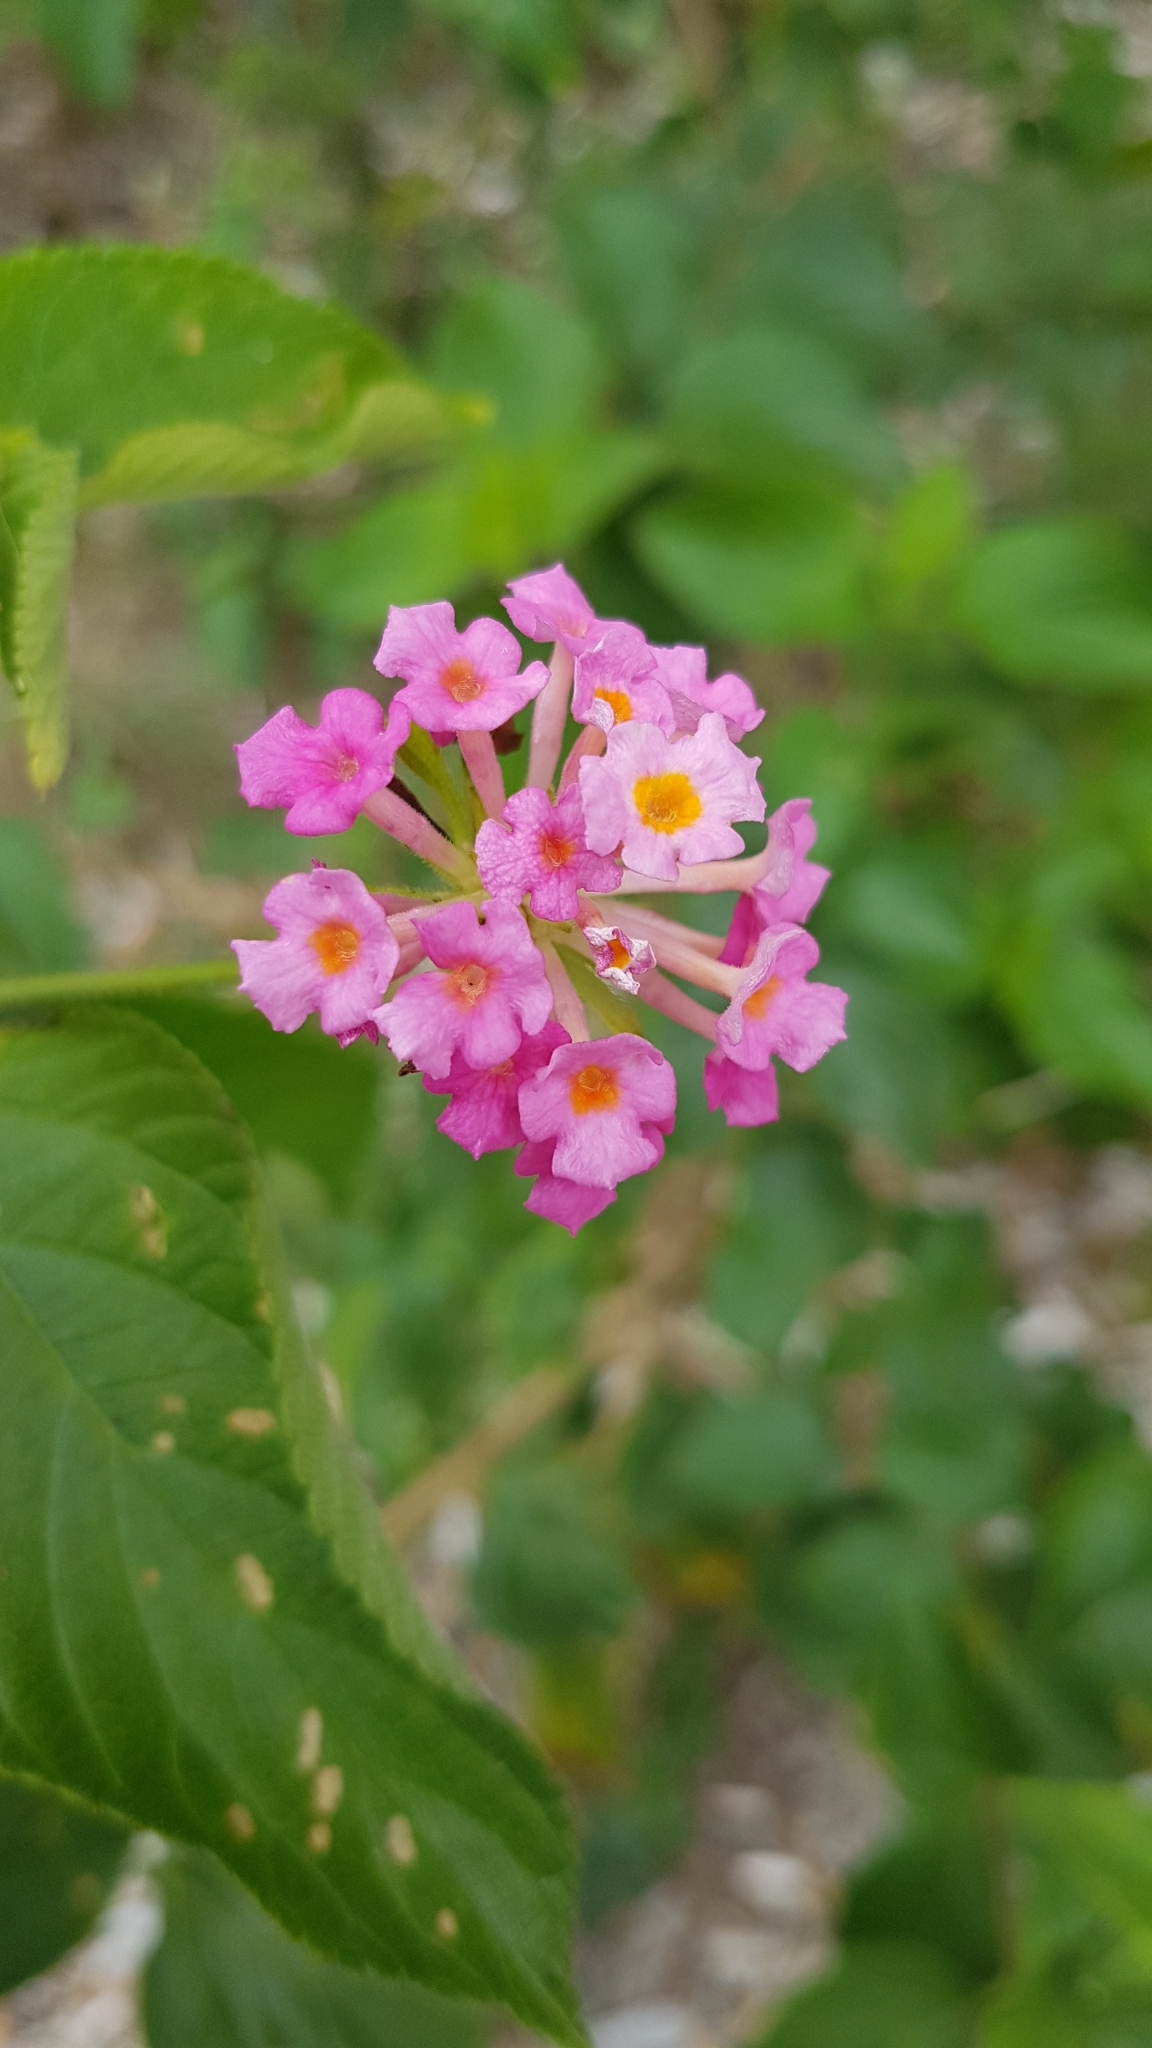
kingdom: Plantae
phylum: Tracheophyta
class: Magnoliopsida
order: Lamiales
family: Verbenaceae
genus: Lantana
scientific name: Lantana camara
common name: Lantana
